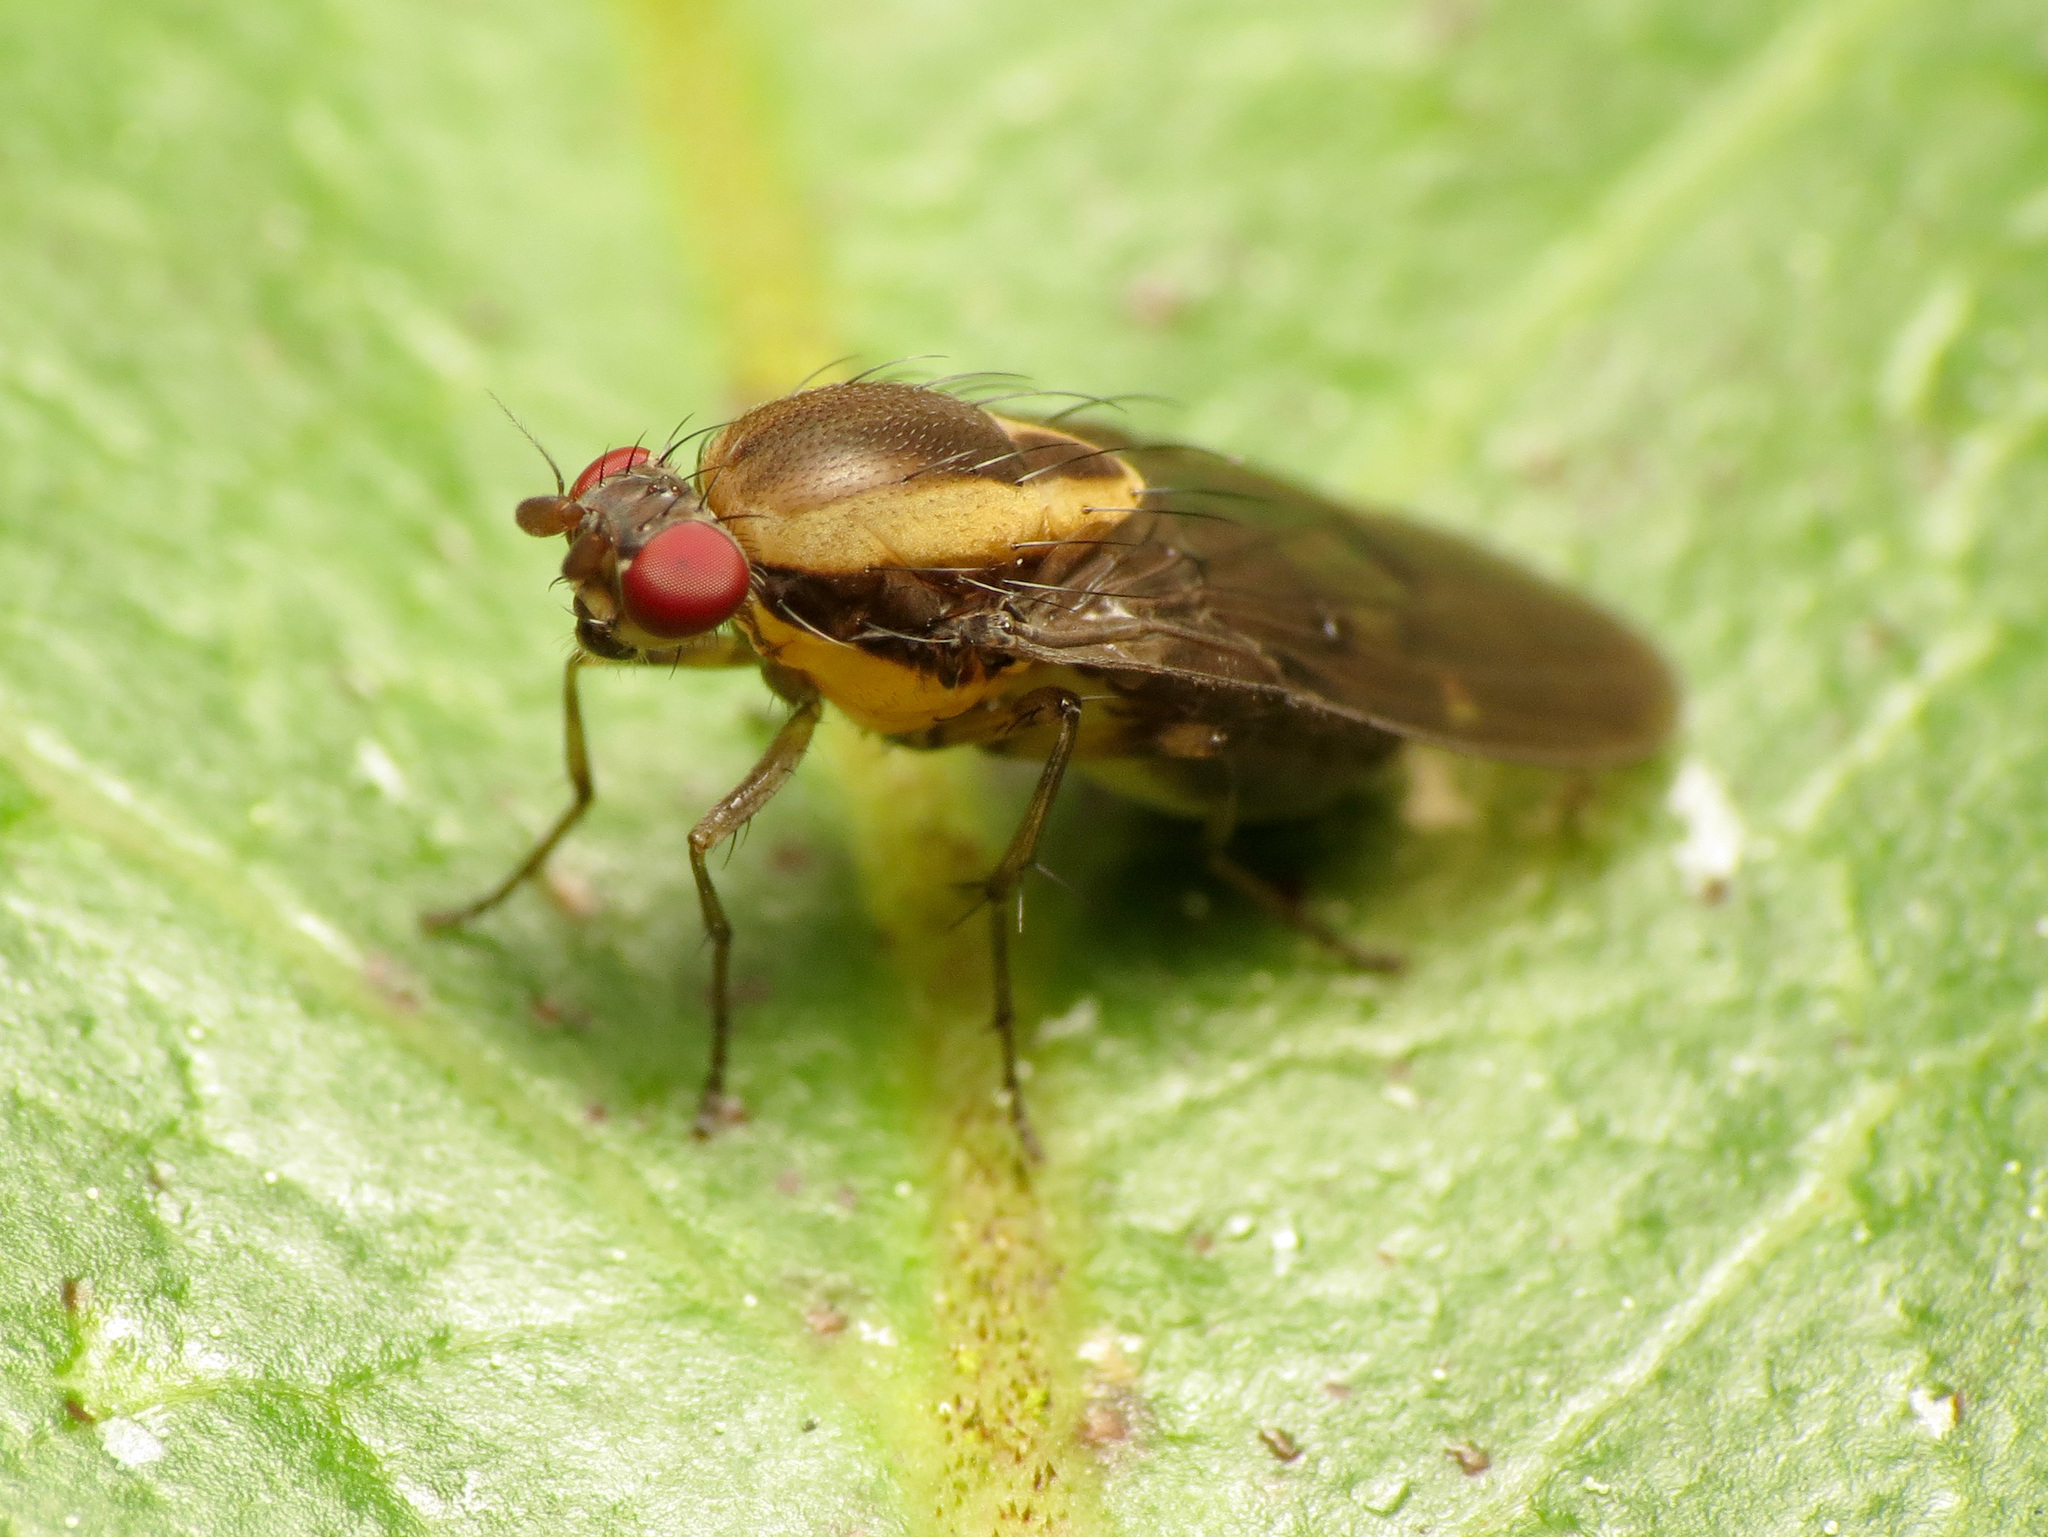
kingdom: Animalia
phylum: Arthropoda
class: Insecta
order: Diptera
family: Heleomyzidae
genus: Allophylopsis
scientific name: Allophylopsis scutellata
